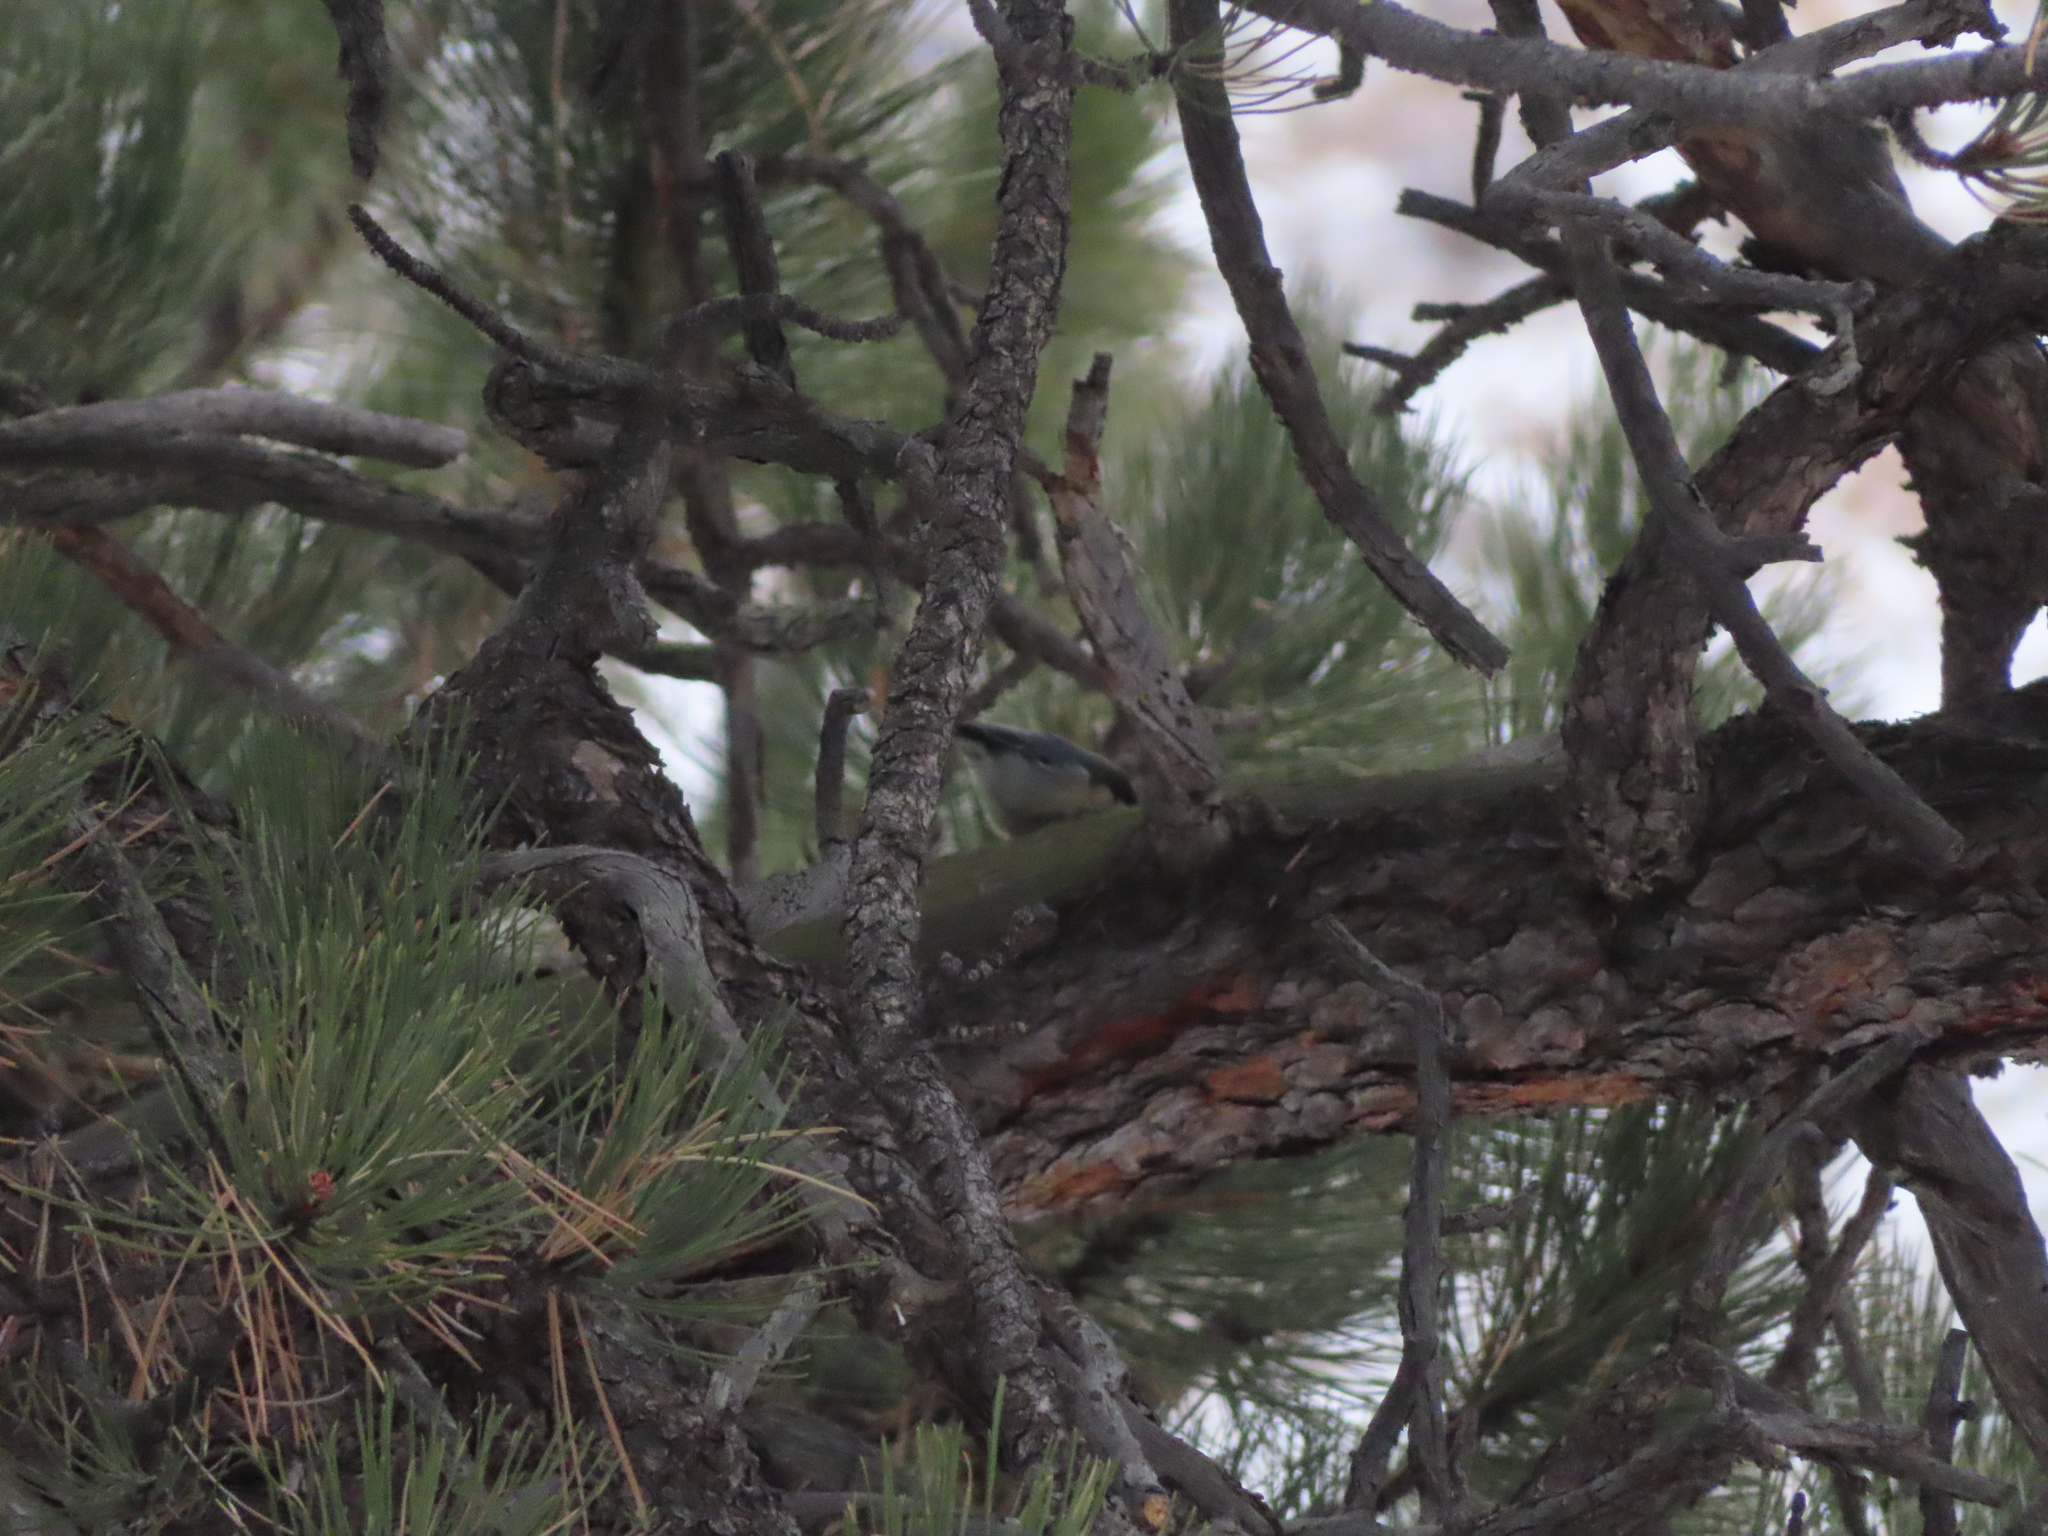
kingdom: Animalia
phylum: Chordata
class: Aves
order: Passeriformes
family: Sittidae
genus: Sitta
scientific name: Sitta pygmaea
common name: Pygmy nuthatch
